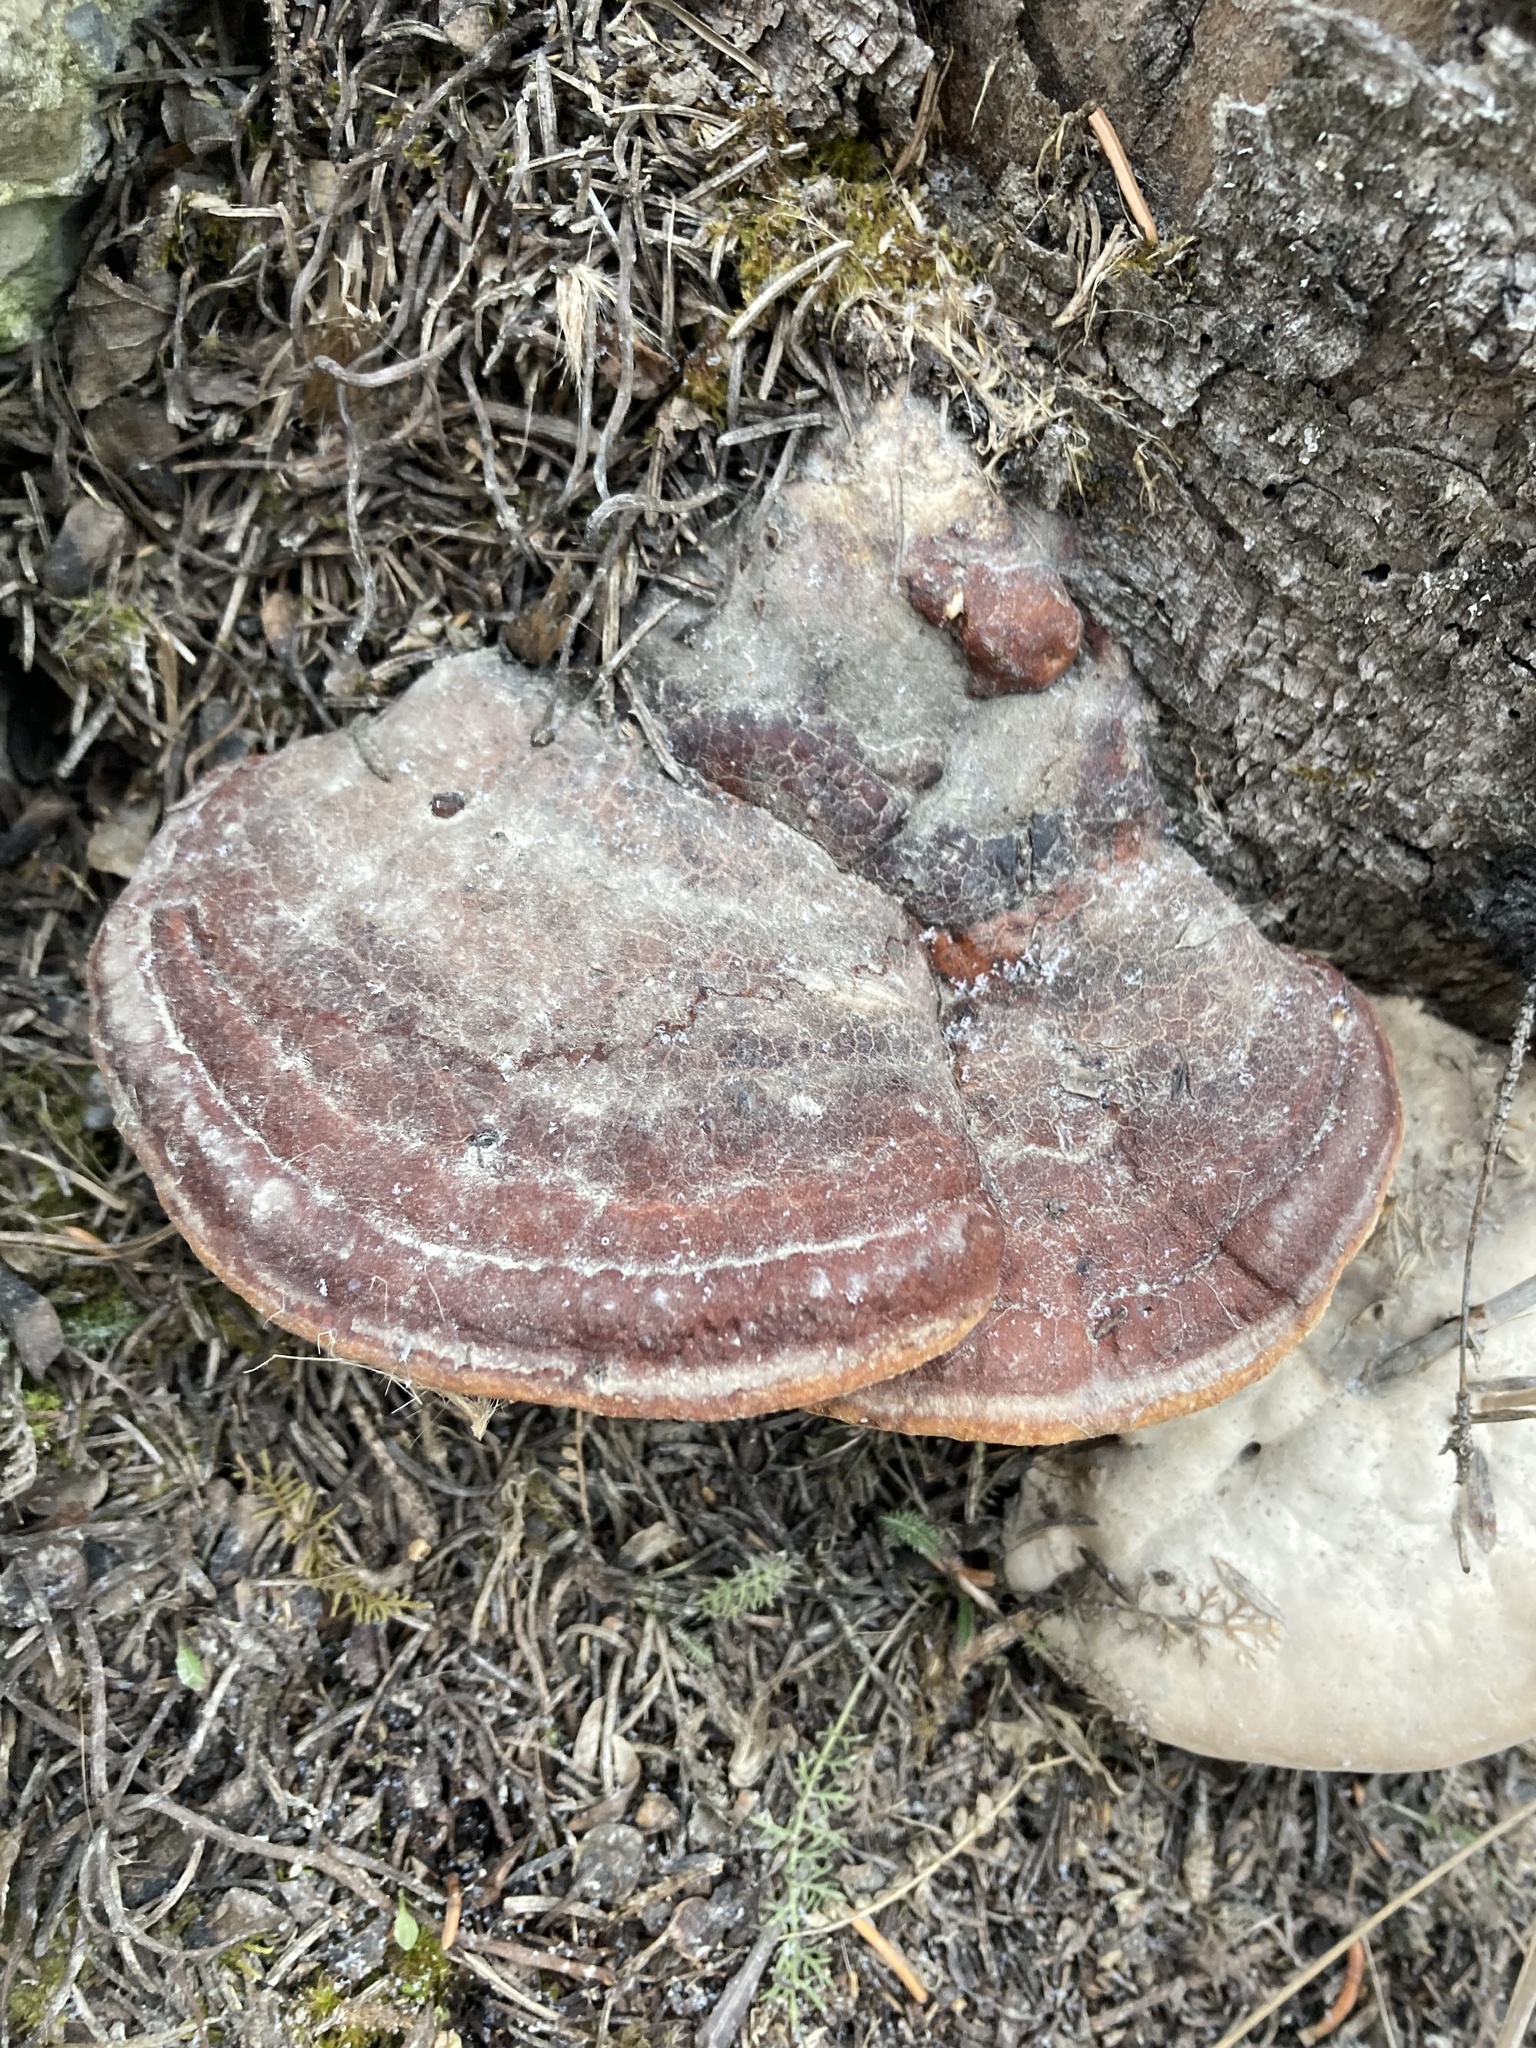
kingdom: Fungi
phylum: Basidiomycota
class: Agaricomycetes
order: Polyporales
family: Fomitopsidaceae
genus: Fomitopsis
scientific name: Fomitopsis mounceae
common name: Northern red belt
